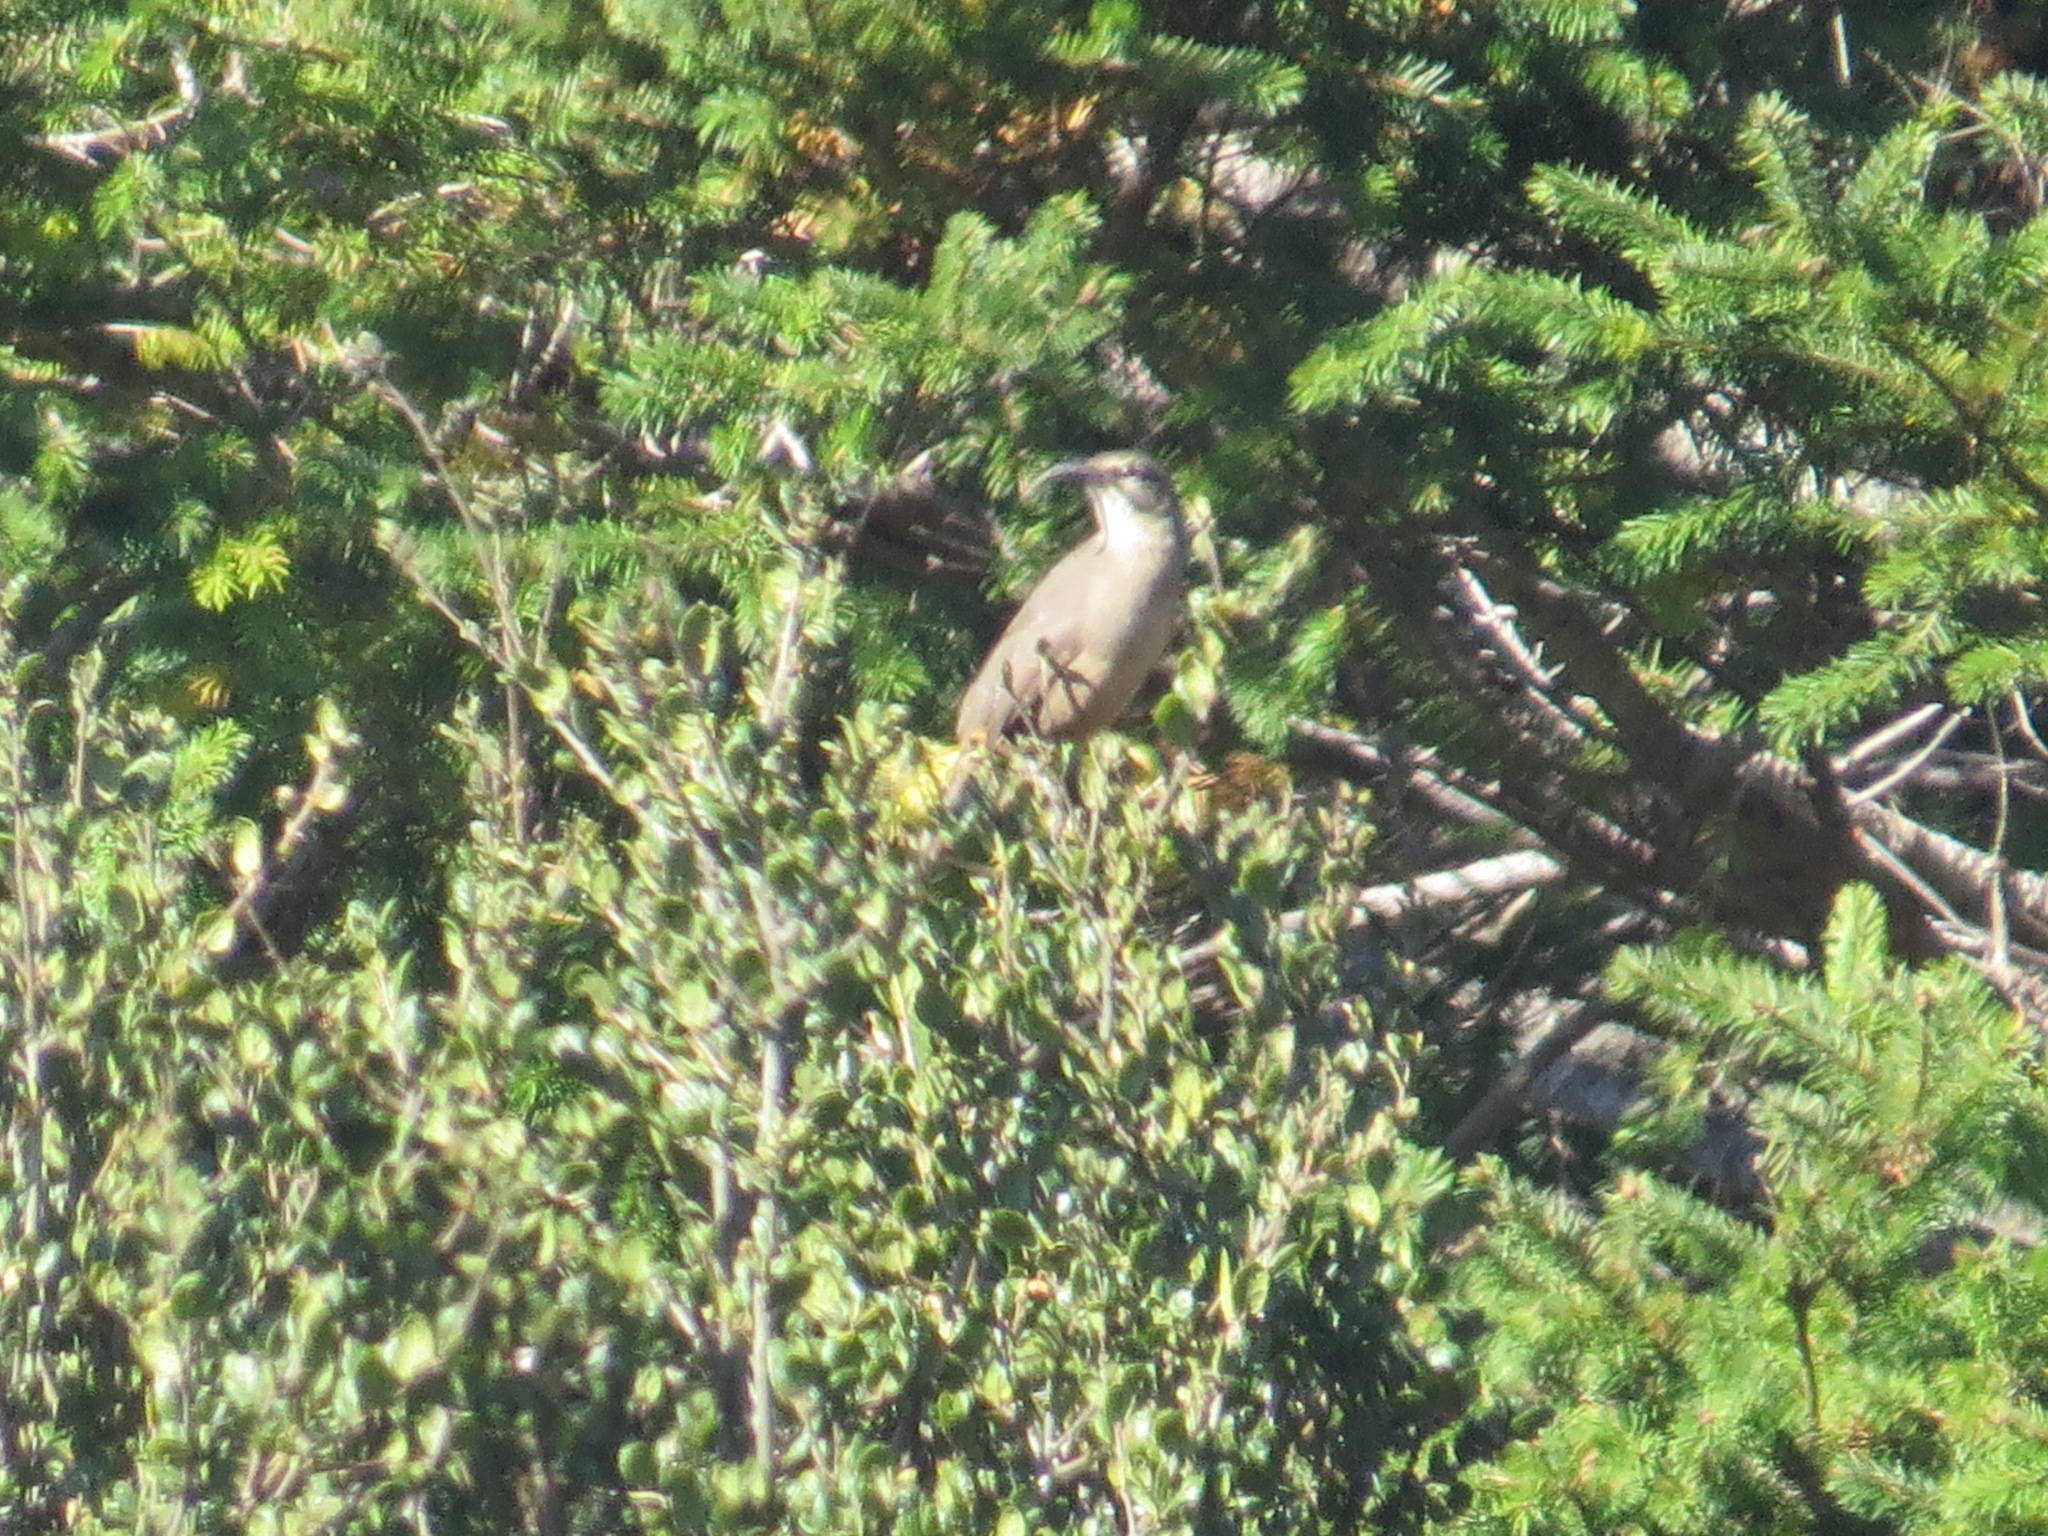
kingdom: Animalia
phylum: Chordata
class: Aves
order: Passeriformes
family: Mimidae
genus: Toxostoma
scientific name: Toxostoma redivivum
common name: California thrasher
